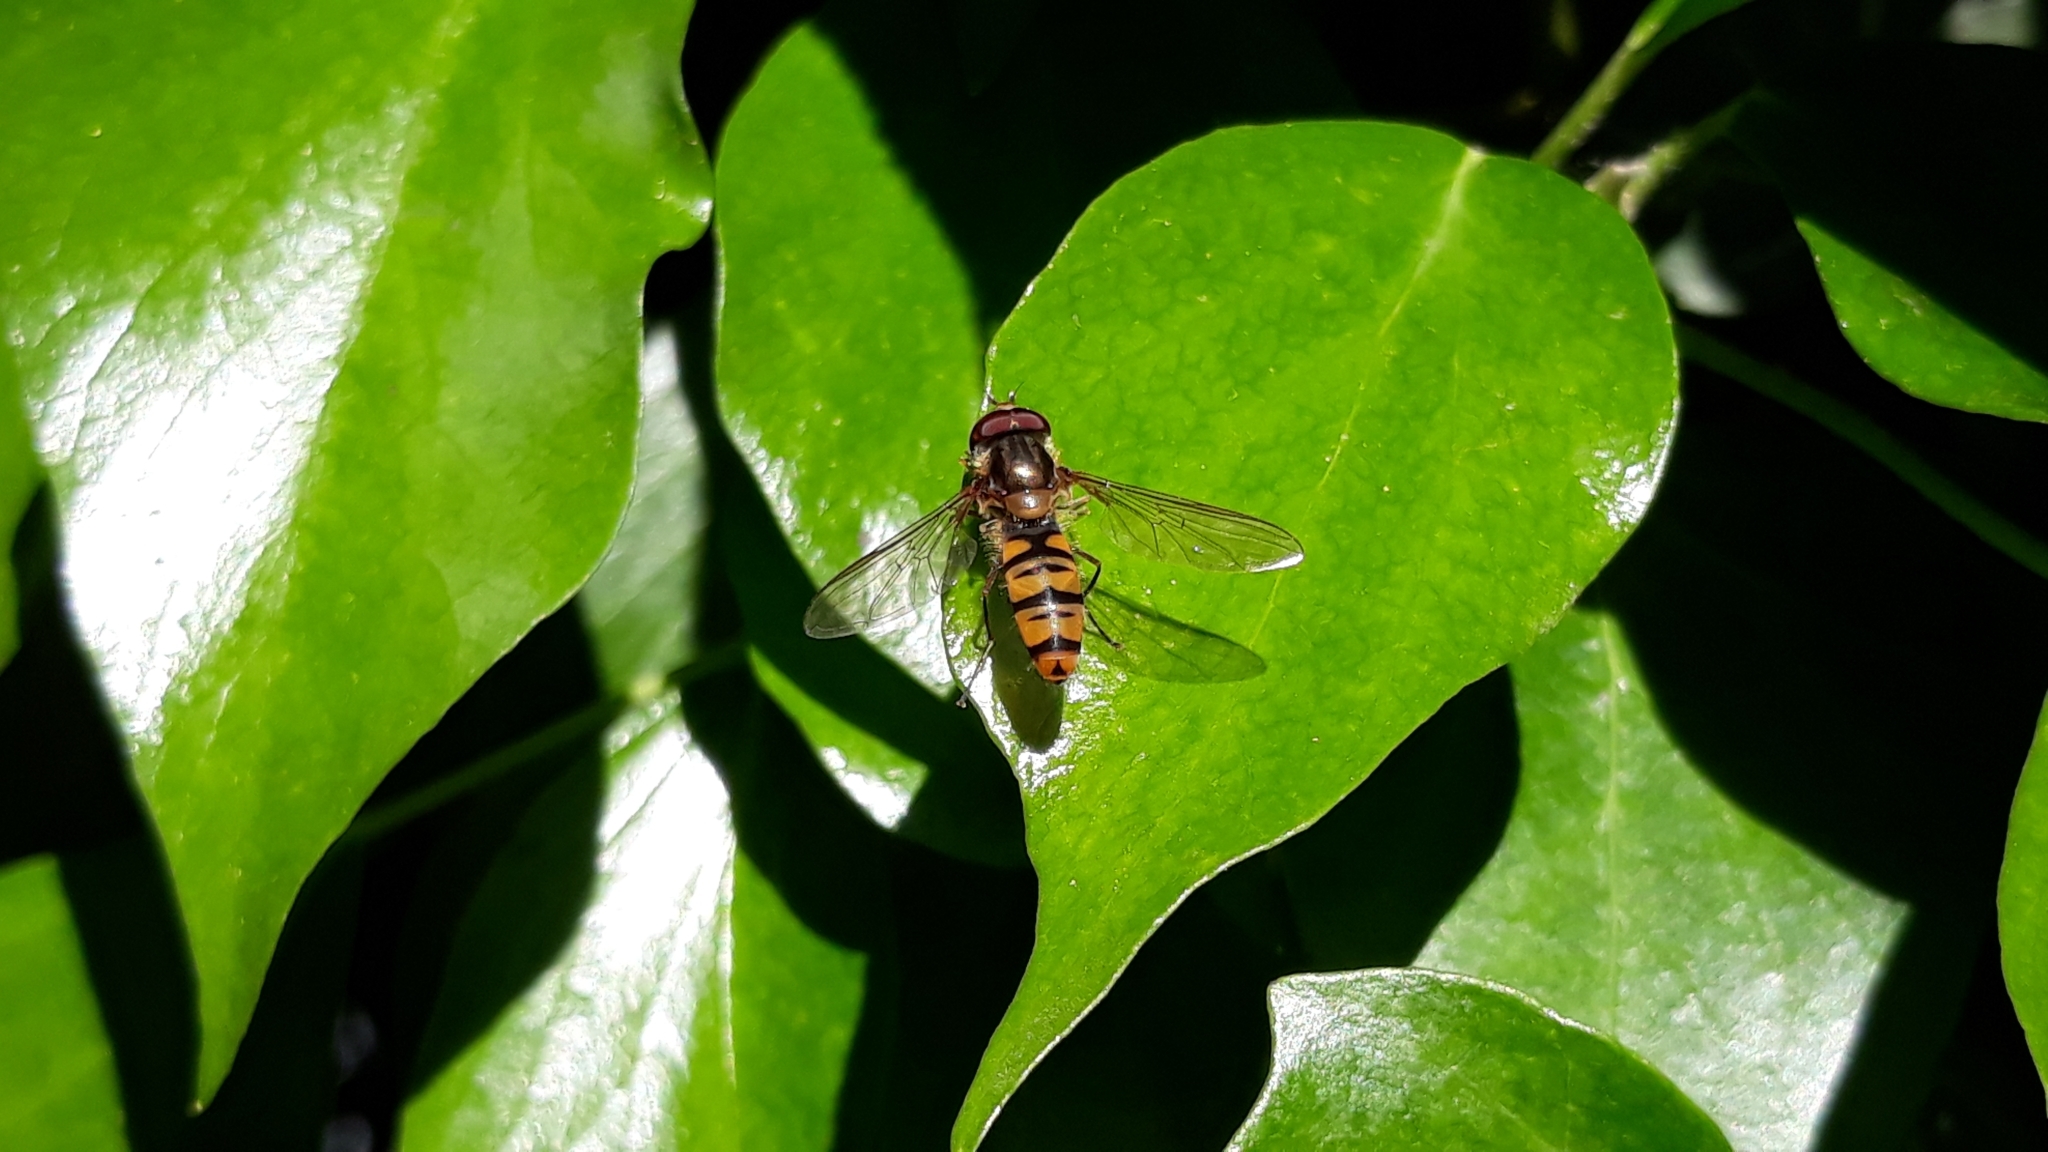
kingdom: Animalia
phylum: Arthropoda
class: Insecta
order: Diptera
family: Syrphidae
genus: Episyrphus
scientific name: Episyrphus balteatus
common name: Marmalade hoverfly
